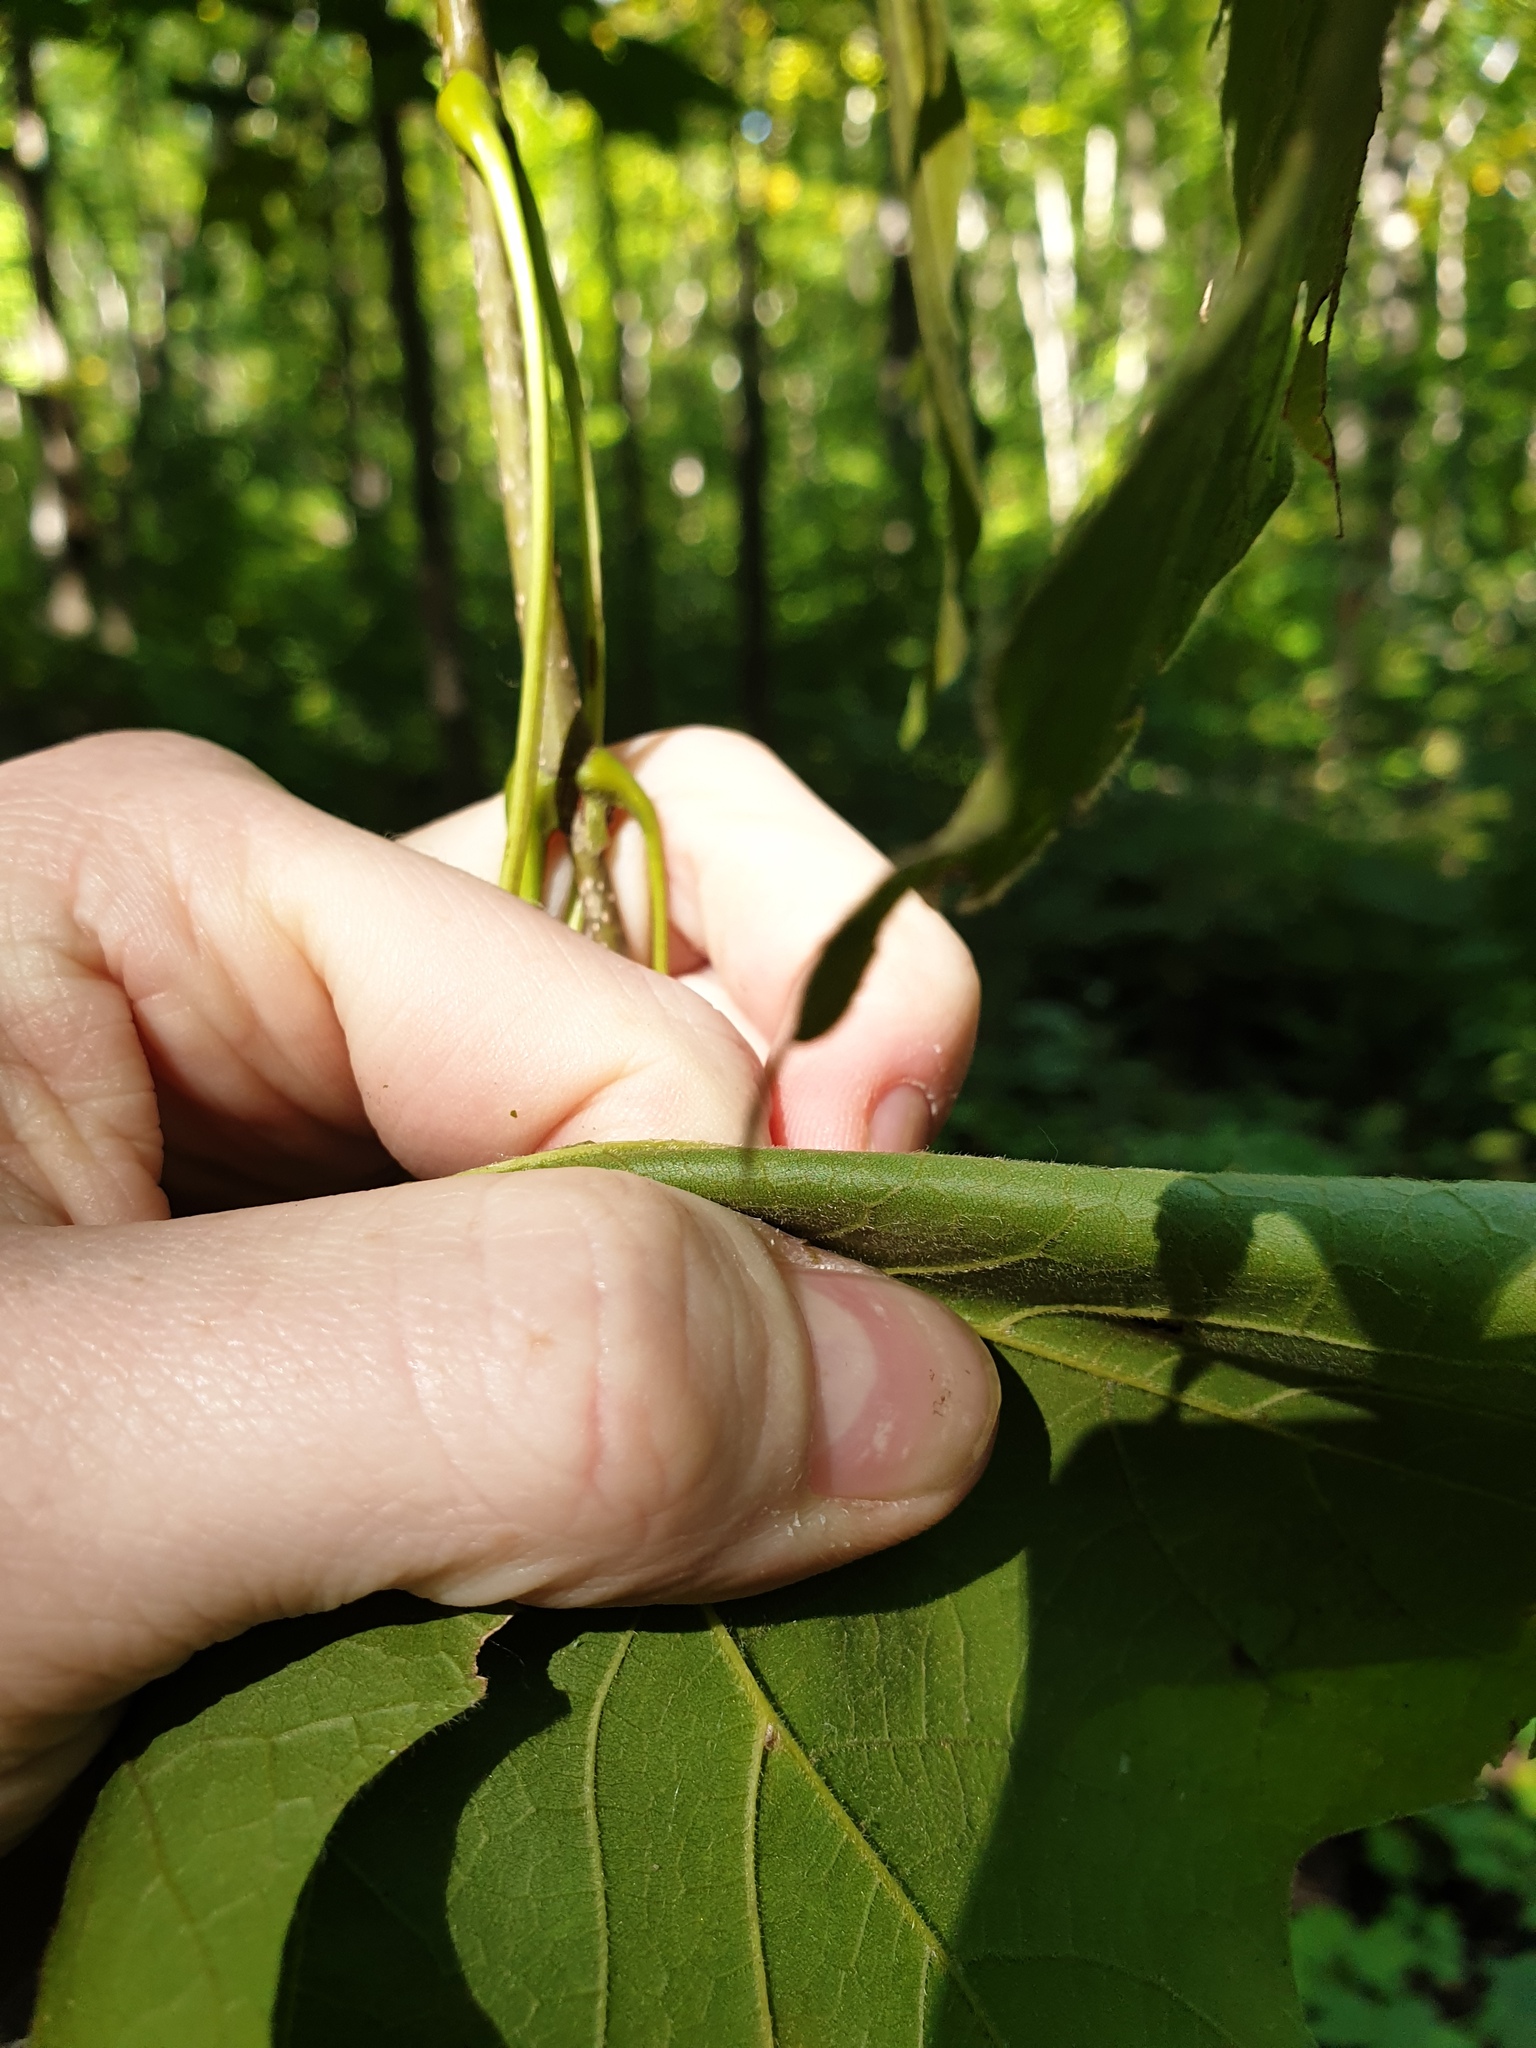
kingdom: Plantae
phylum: Tracheophyta
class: Magnoliopsida
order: Sapindales
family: Sapindaceae
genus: Acer
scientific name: Acer nigrum
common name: Black maple
